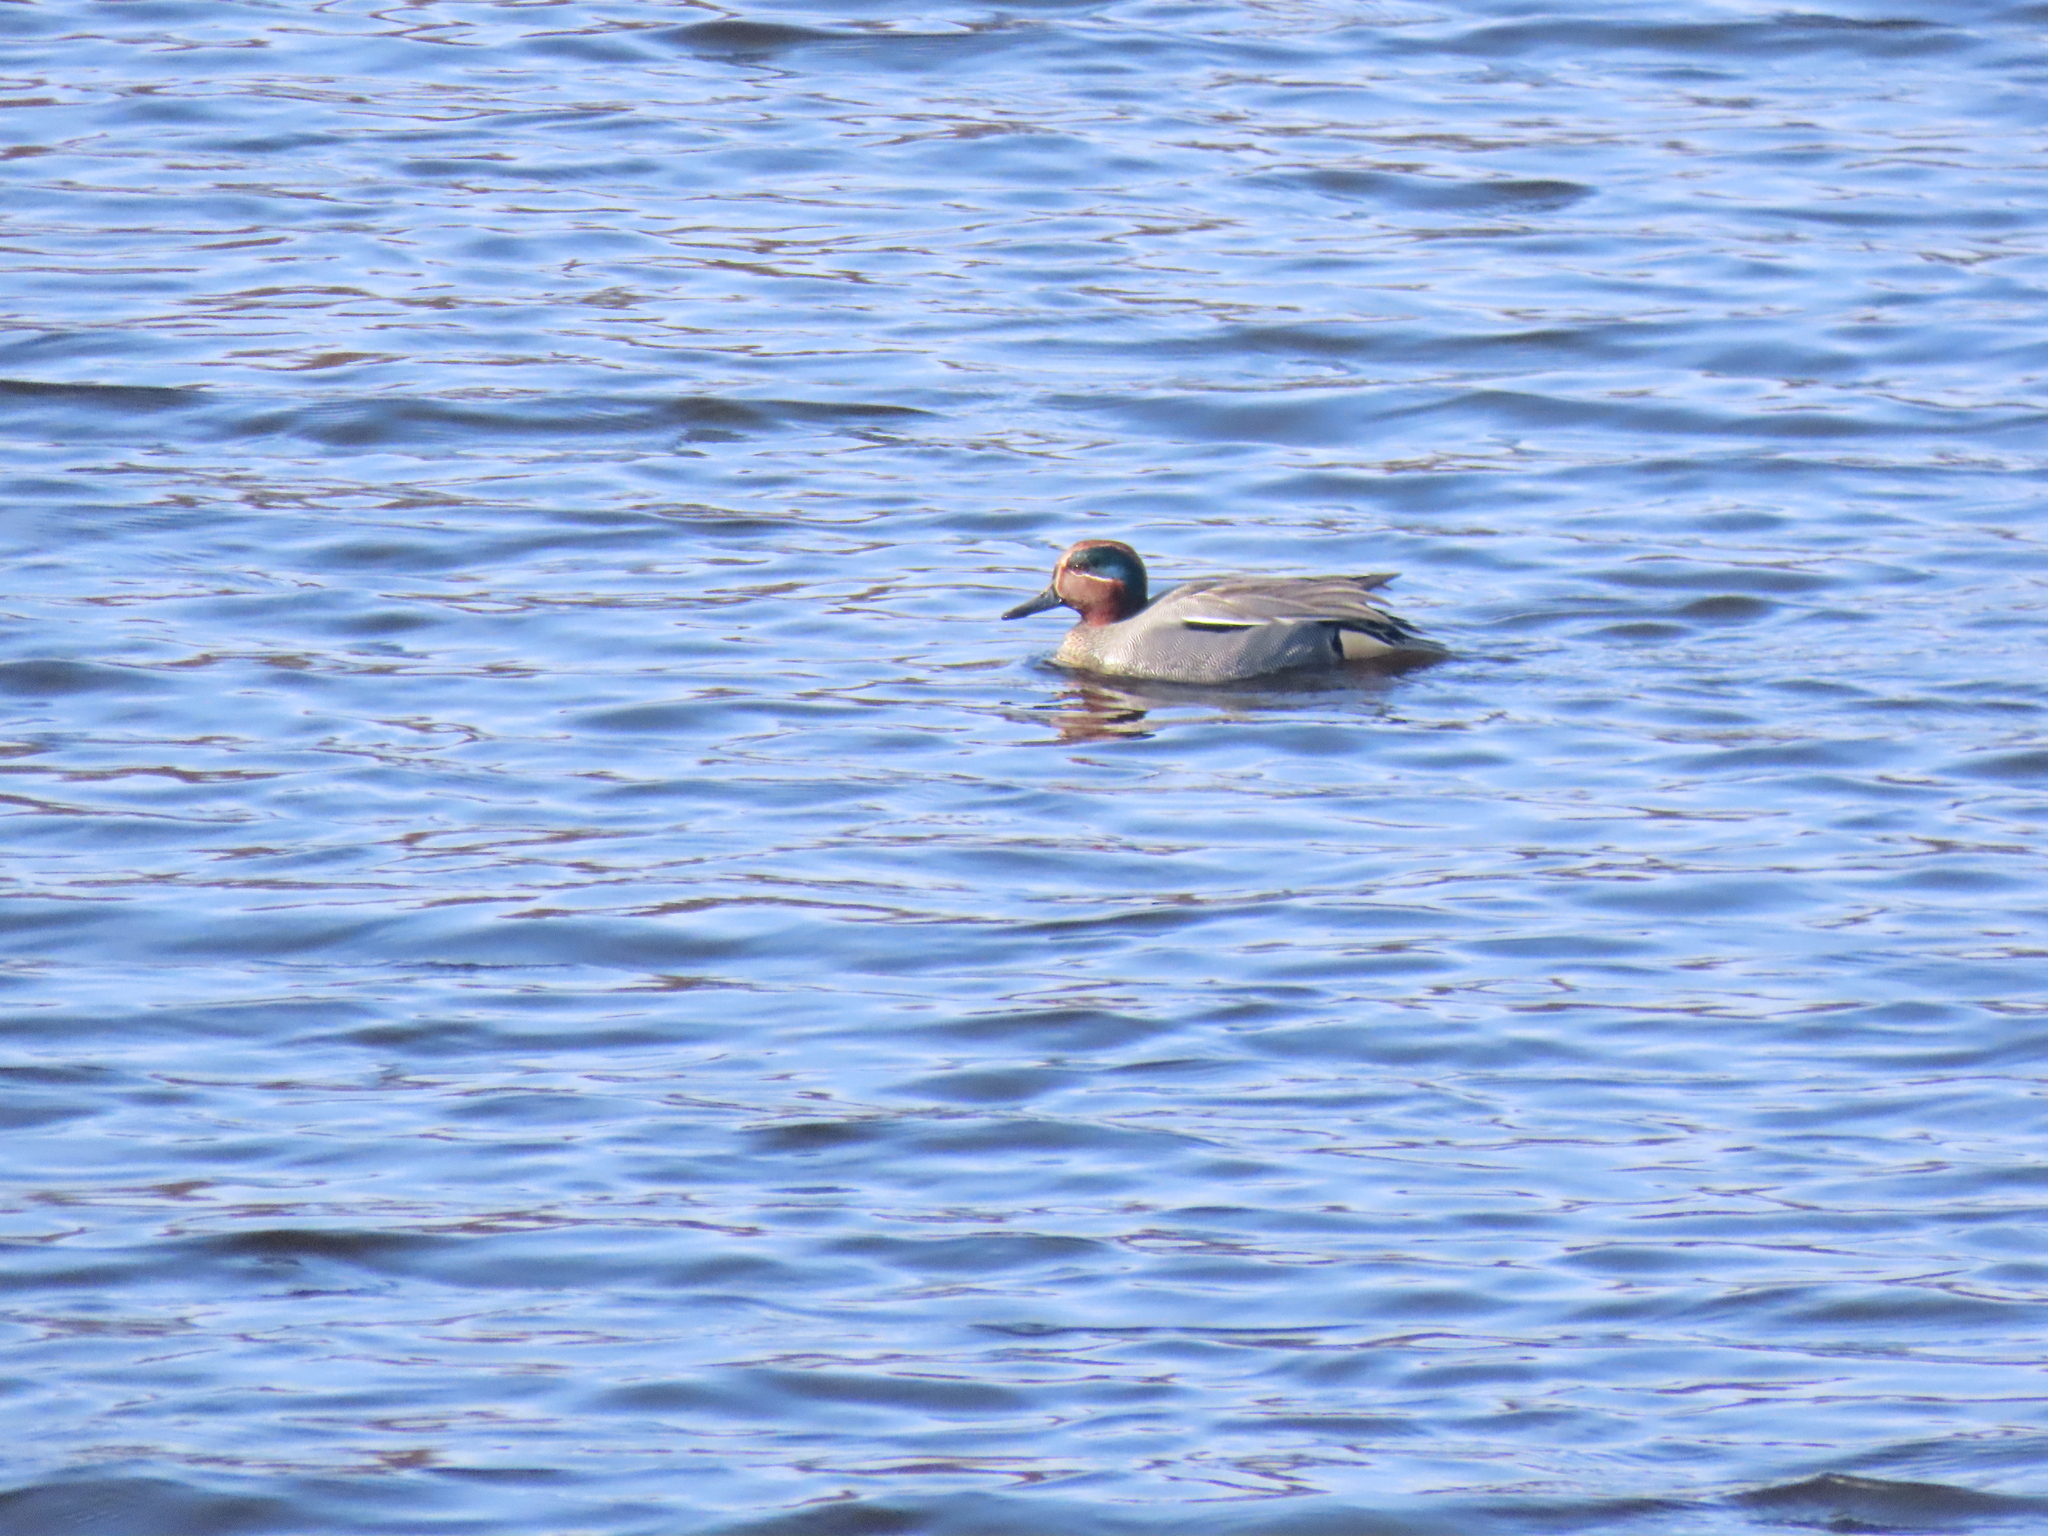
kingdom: Animalia
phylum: Chordata
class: Aves
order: Anseriformes
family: Anatidae
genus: Anas
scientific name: Anas crecca
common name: Eurasian teal
